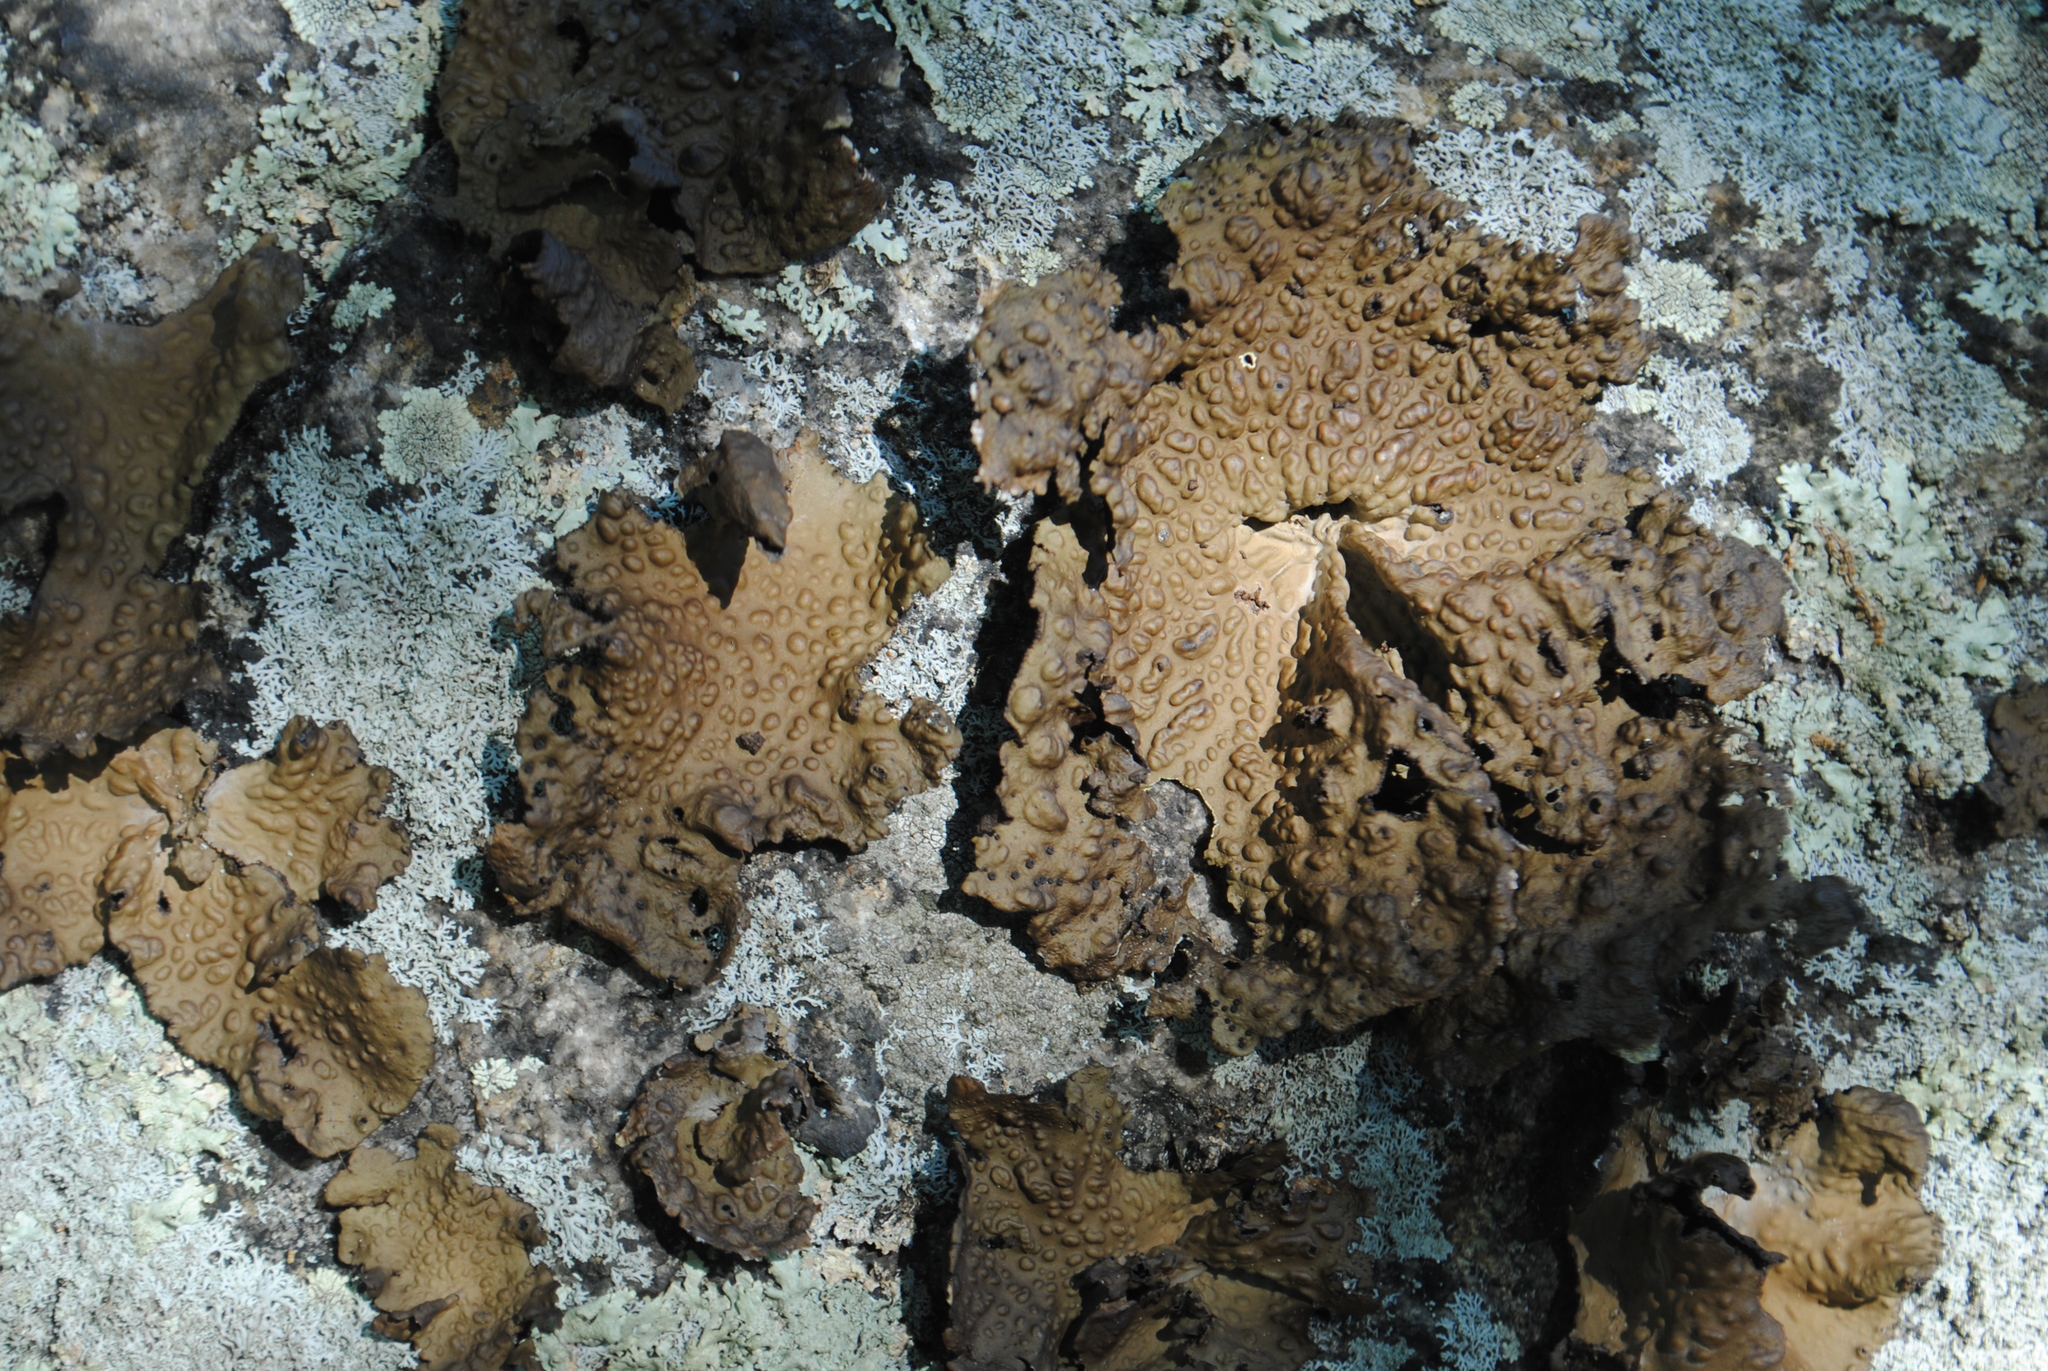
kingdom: Fungi
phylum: Ascomycota
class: Lecanoromycetes
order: Umbilicariales
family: Umbilicariaceae
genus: Lasallia
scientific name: Lasallia pensylvanica
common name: Blackened toadskin lichen
